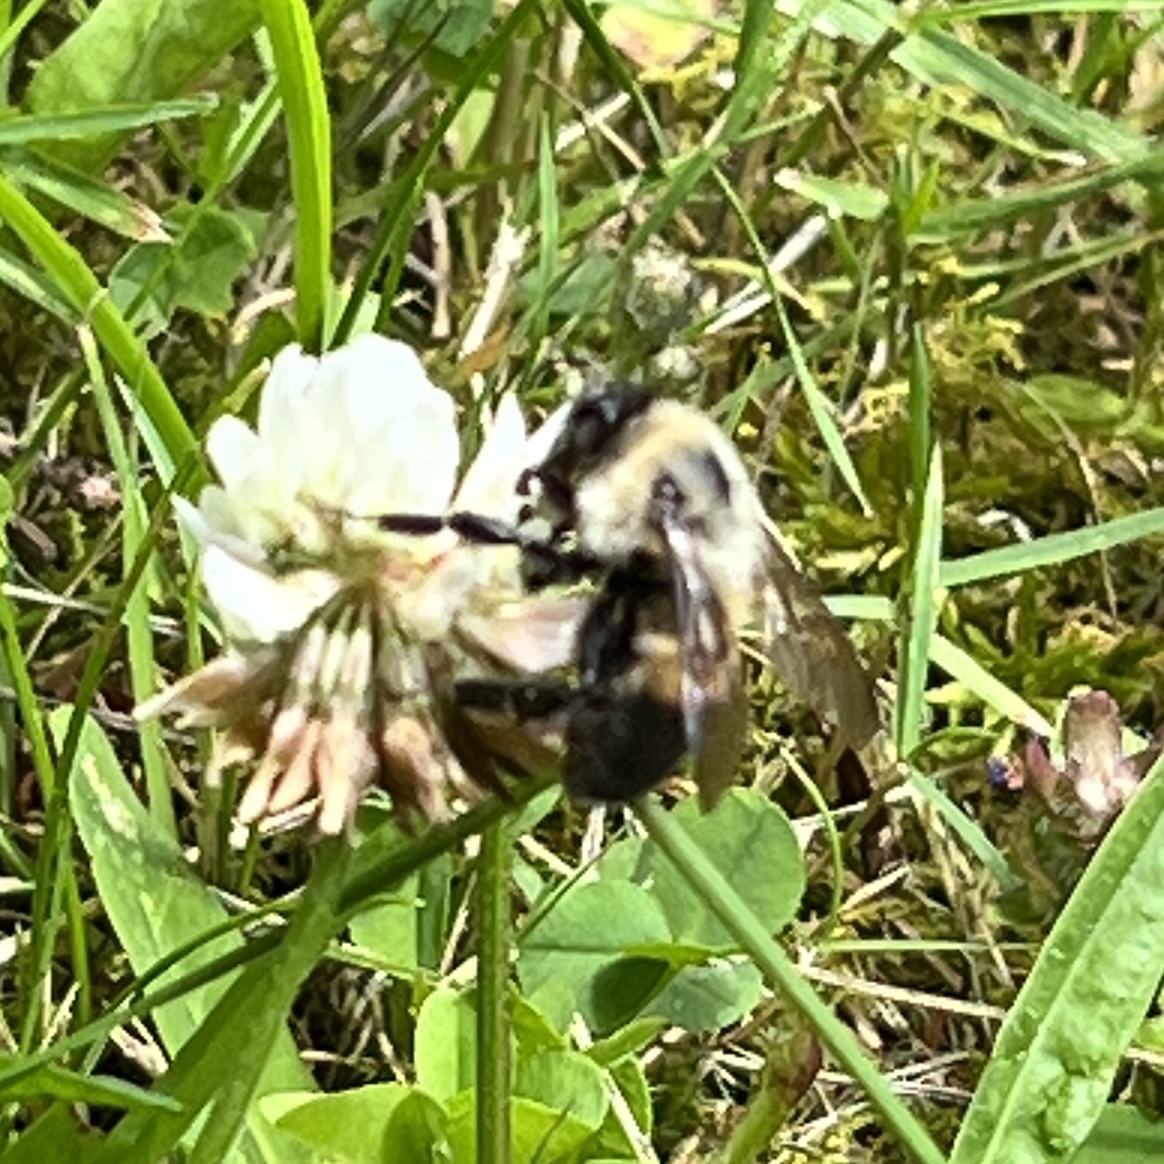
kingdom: Animalia
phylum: Arthropoda
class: Insecta
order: Hymenoptera
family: Apidae
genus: Bombus
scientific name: Bombus griseocollis
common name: Brown-belted bumble bee
